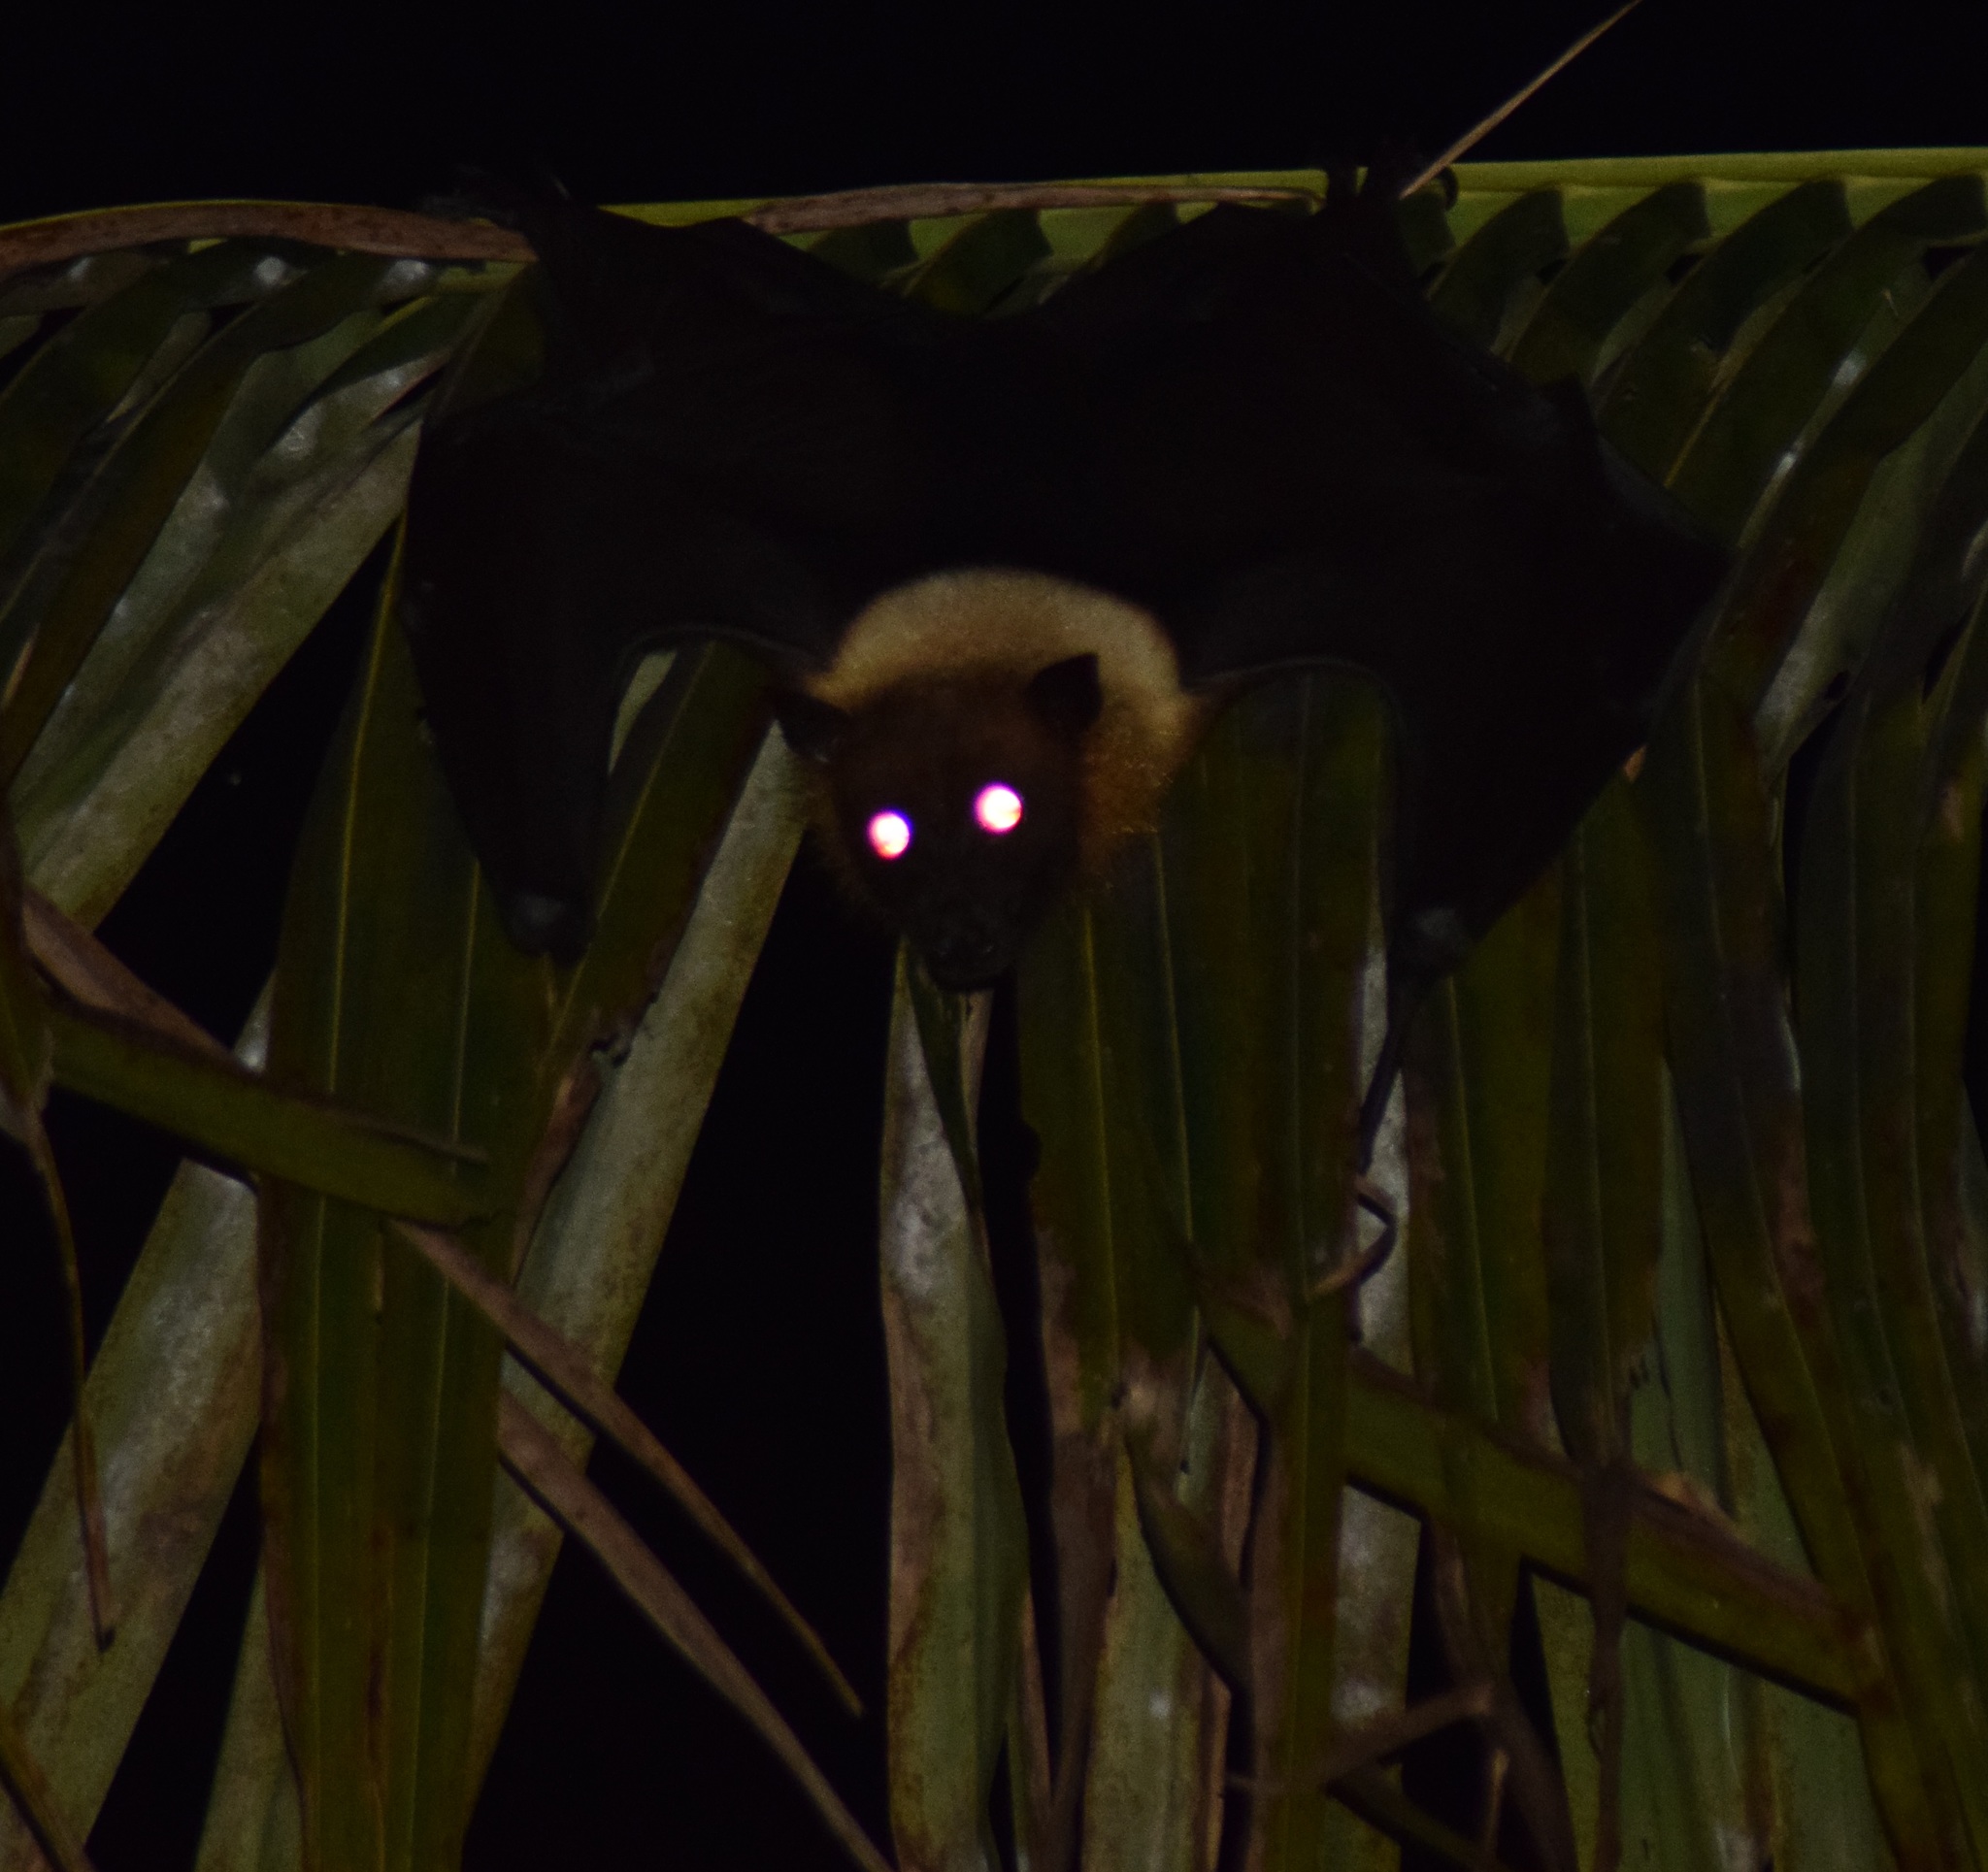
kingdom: Animalia
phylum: Chordata
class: Mammalia
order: Chiroptera
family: Pteropodidae
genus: Pteropus
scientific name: Pteropus vampyrus
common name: Large flying fox
